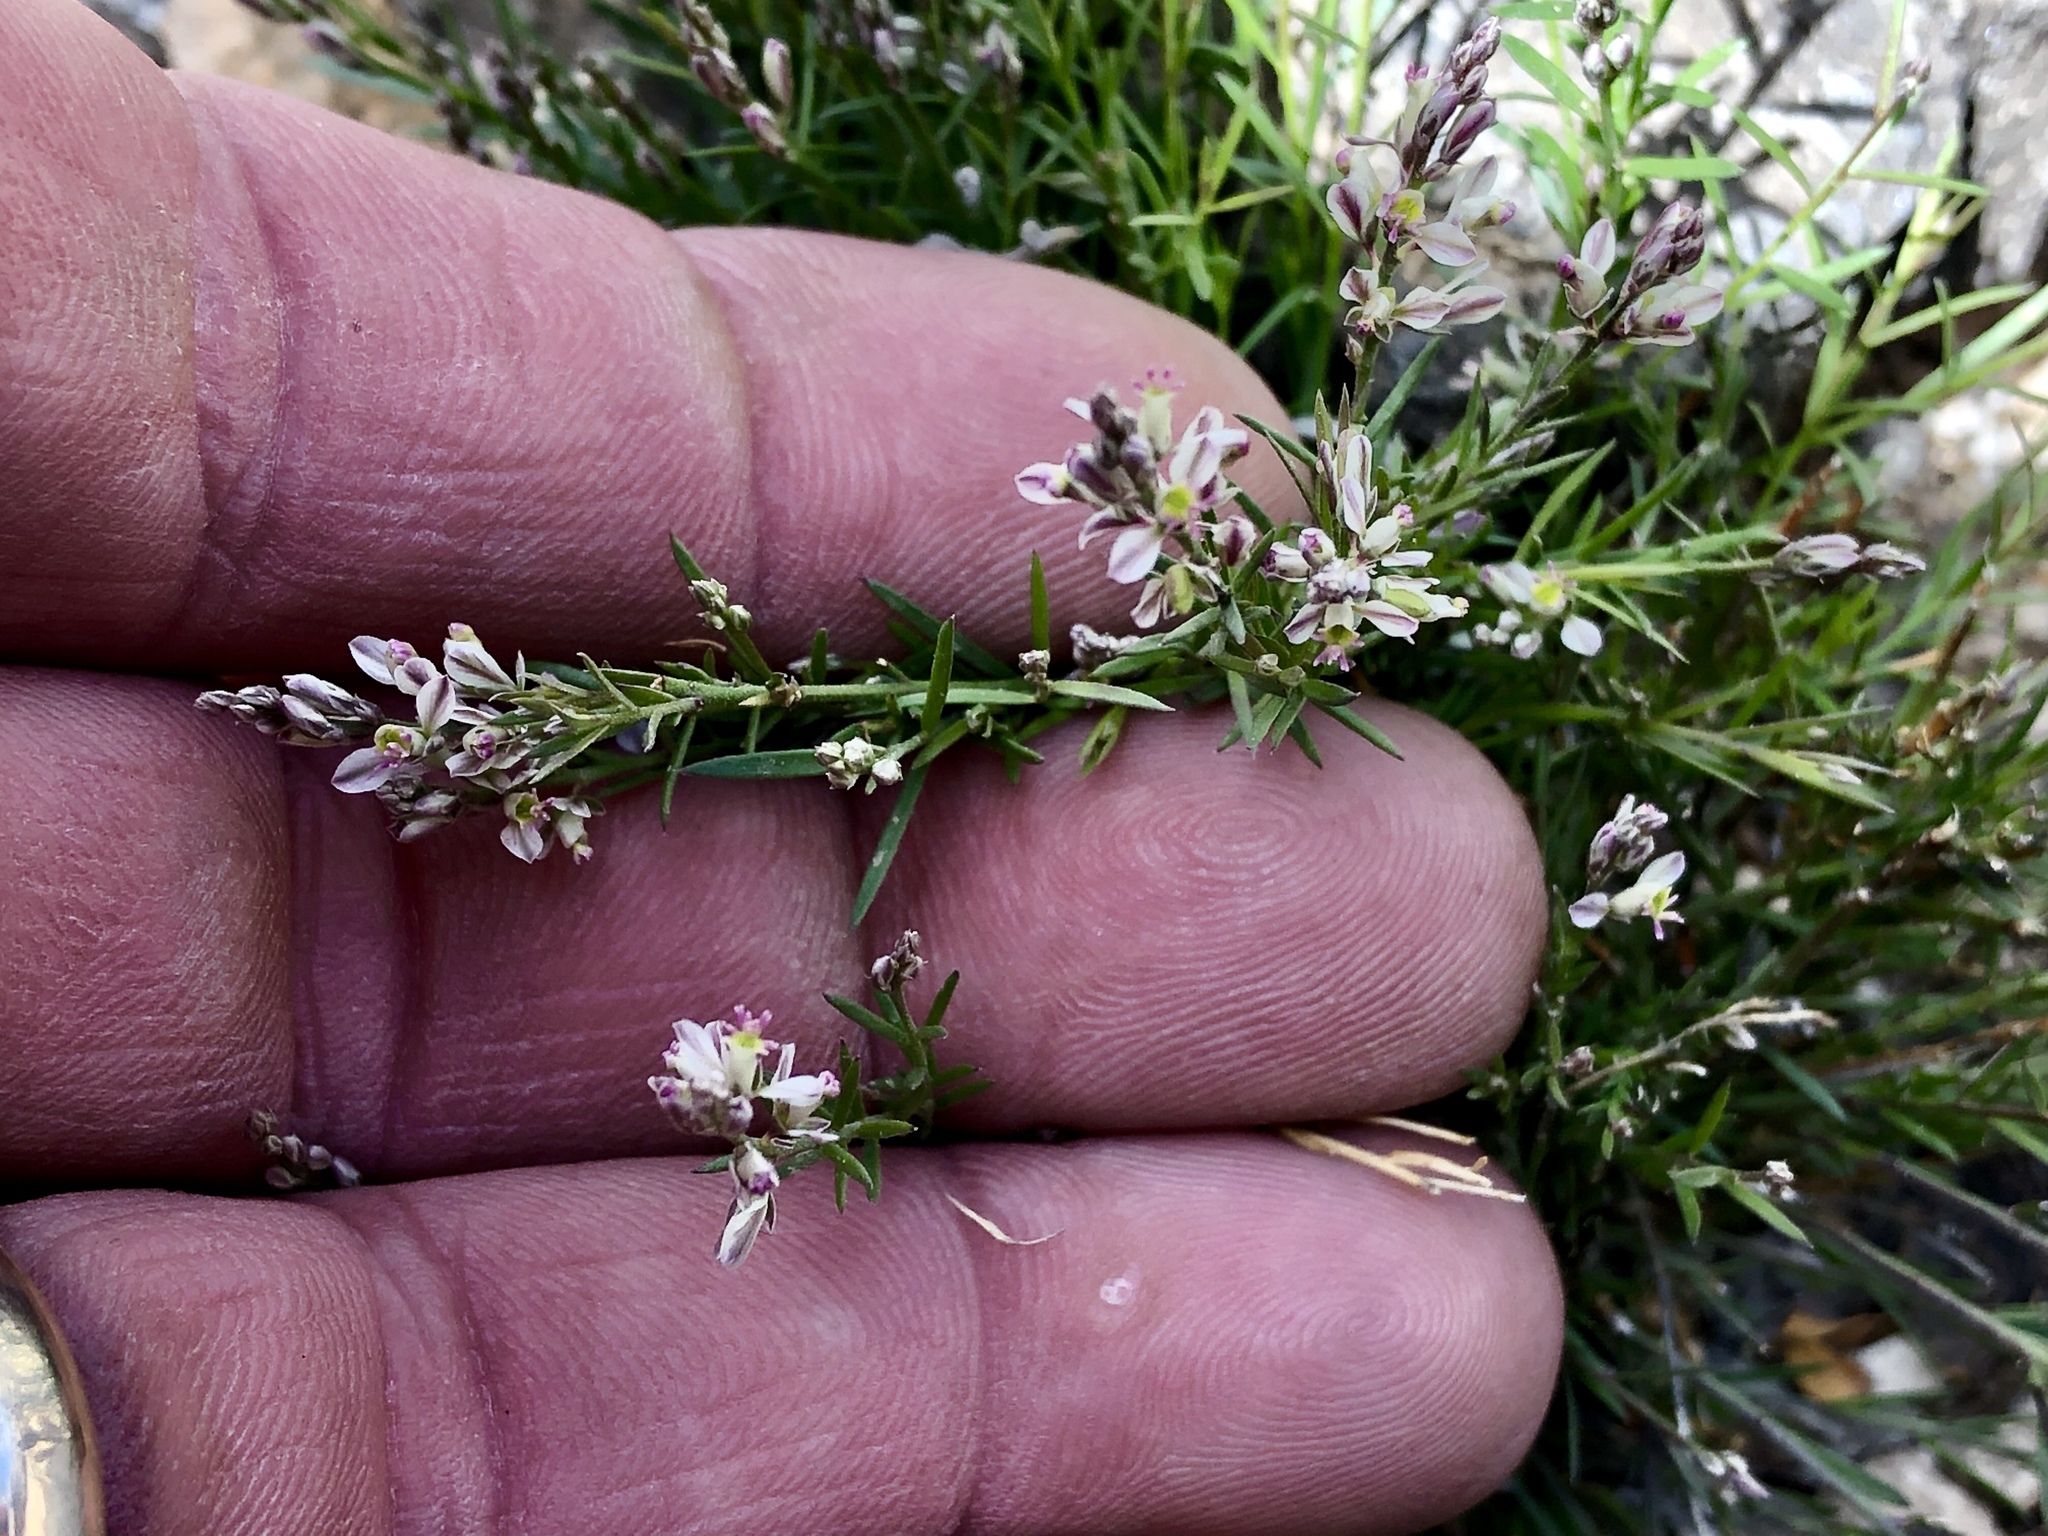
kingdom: Plantae
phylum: Tracheophyta
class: Magnoliopsida
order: Fabales
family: Polygalaceae
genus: Polygala
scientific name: Polygala scoparioides
